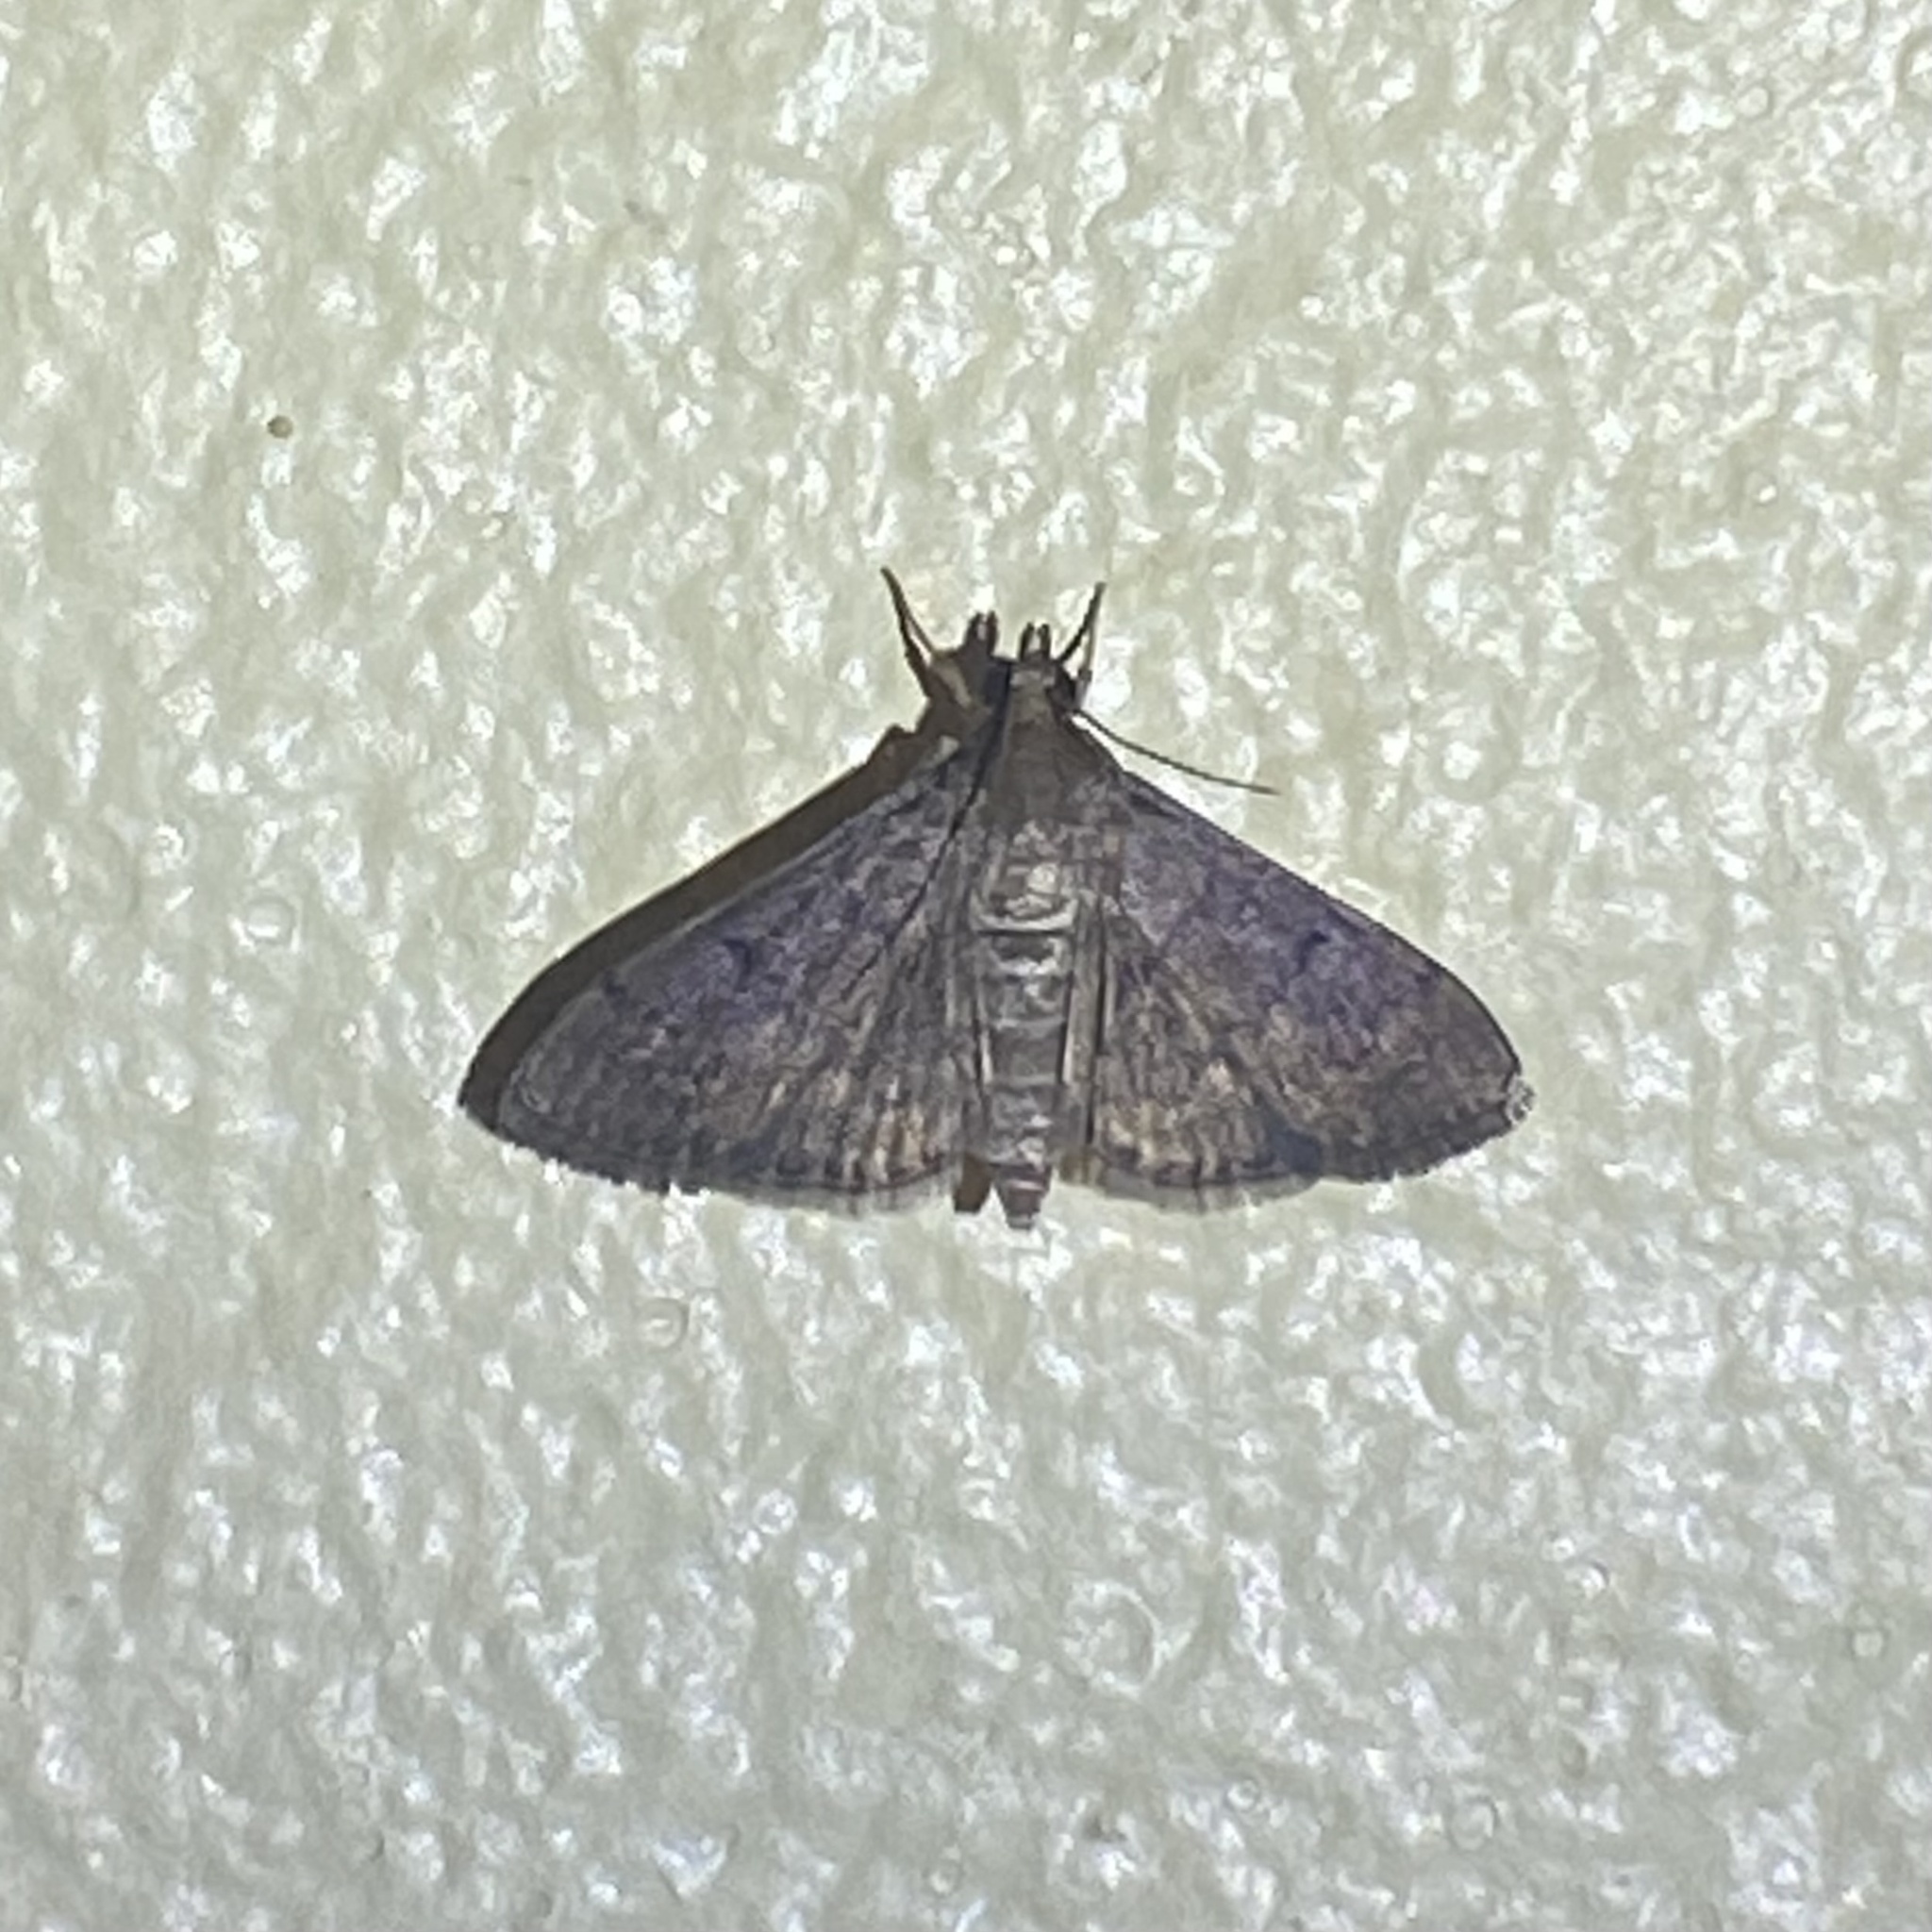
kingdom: Animalia
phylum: Arthropoda
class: Insecta
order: Lepidoptera
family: Crambidae
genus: Herpetogramma
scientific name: Herpetogramma phaeopteralis
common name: Dusky herpetogramma moth
